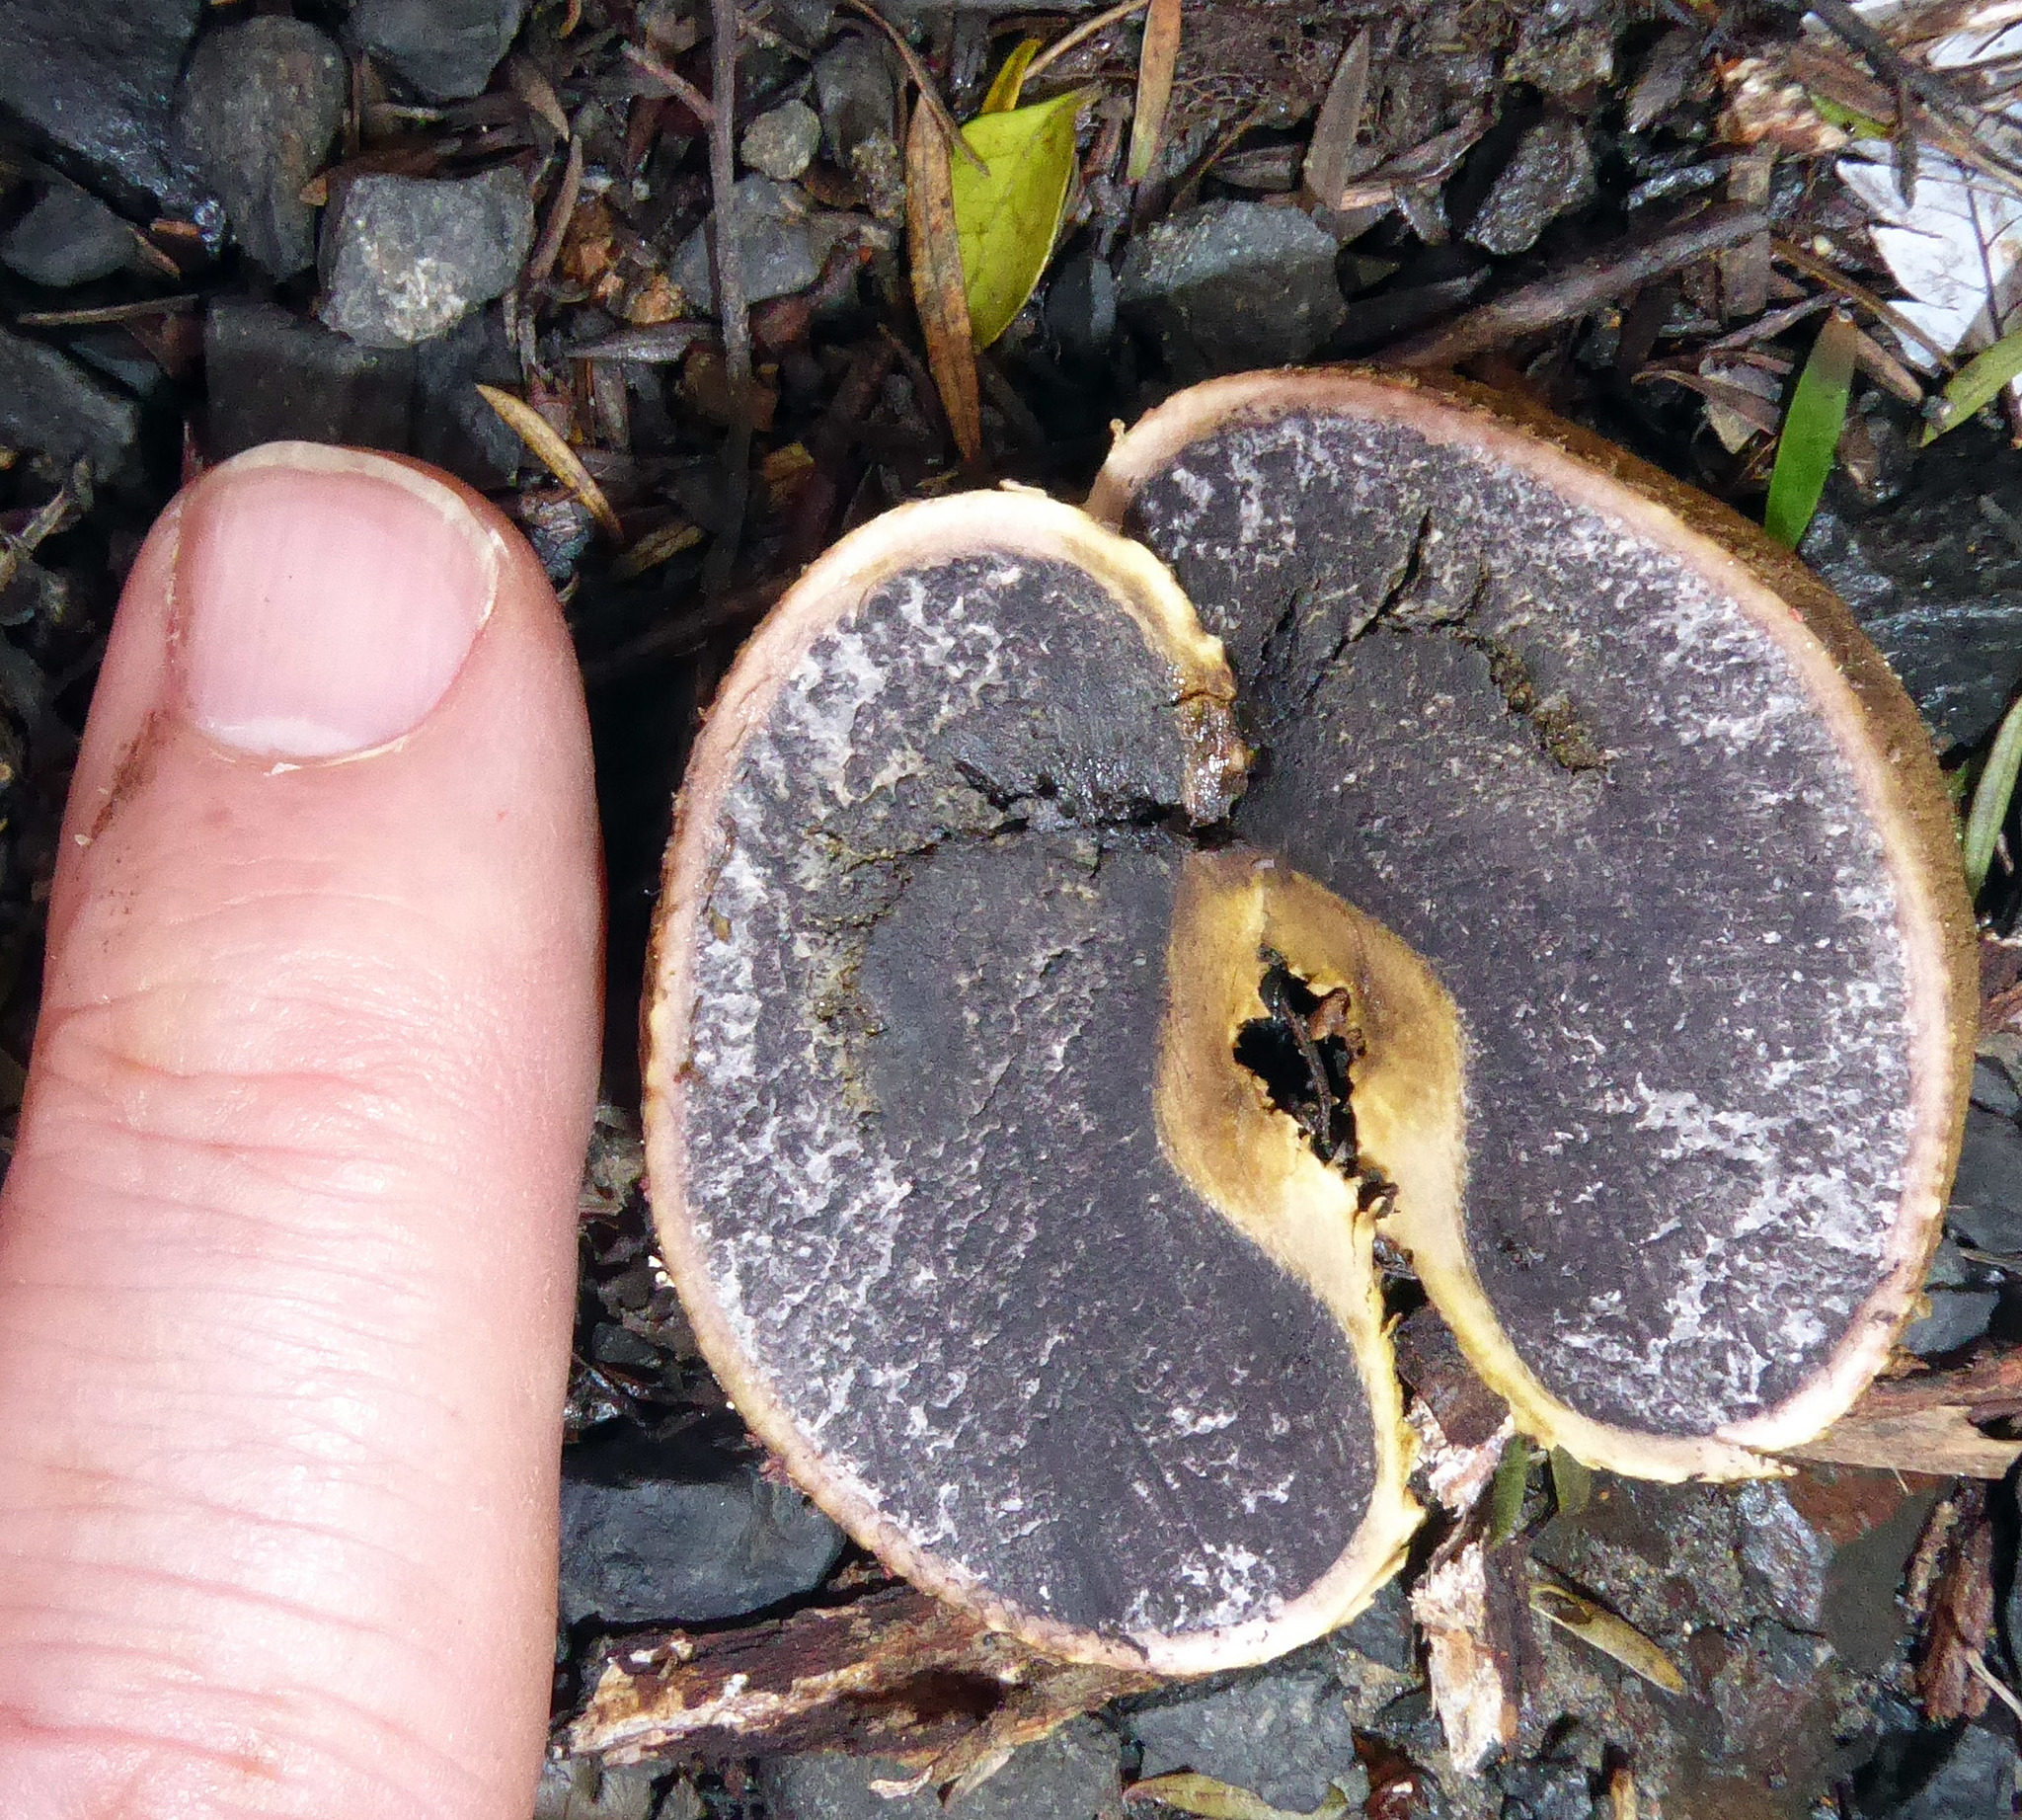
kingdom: Fungi
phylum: Basidiomycota
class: Agaricomycetes
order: Boletales
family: Sclerodermataceae
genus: Scleroderma
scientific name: Scleroderma
